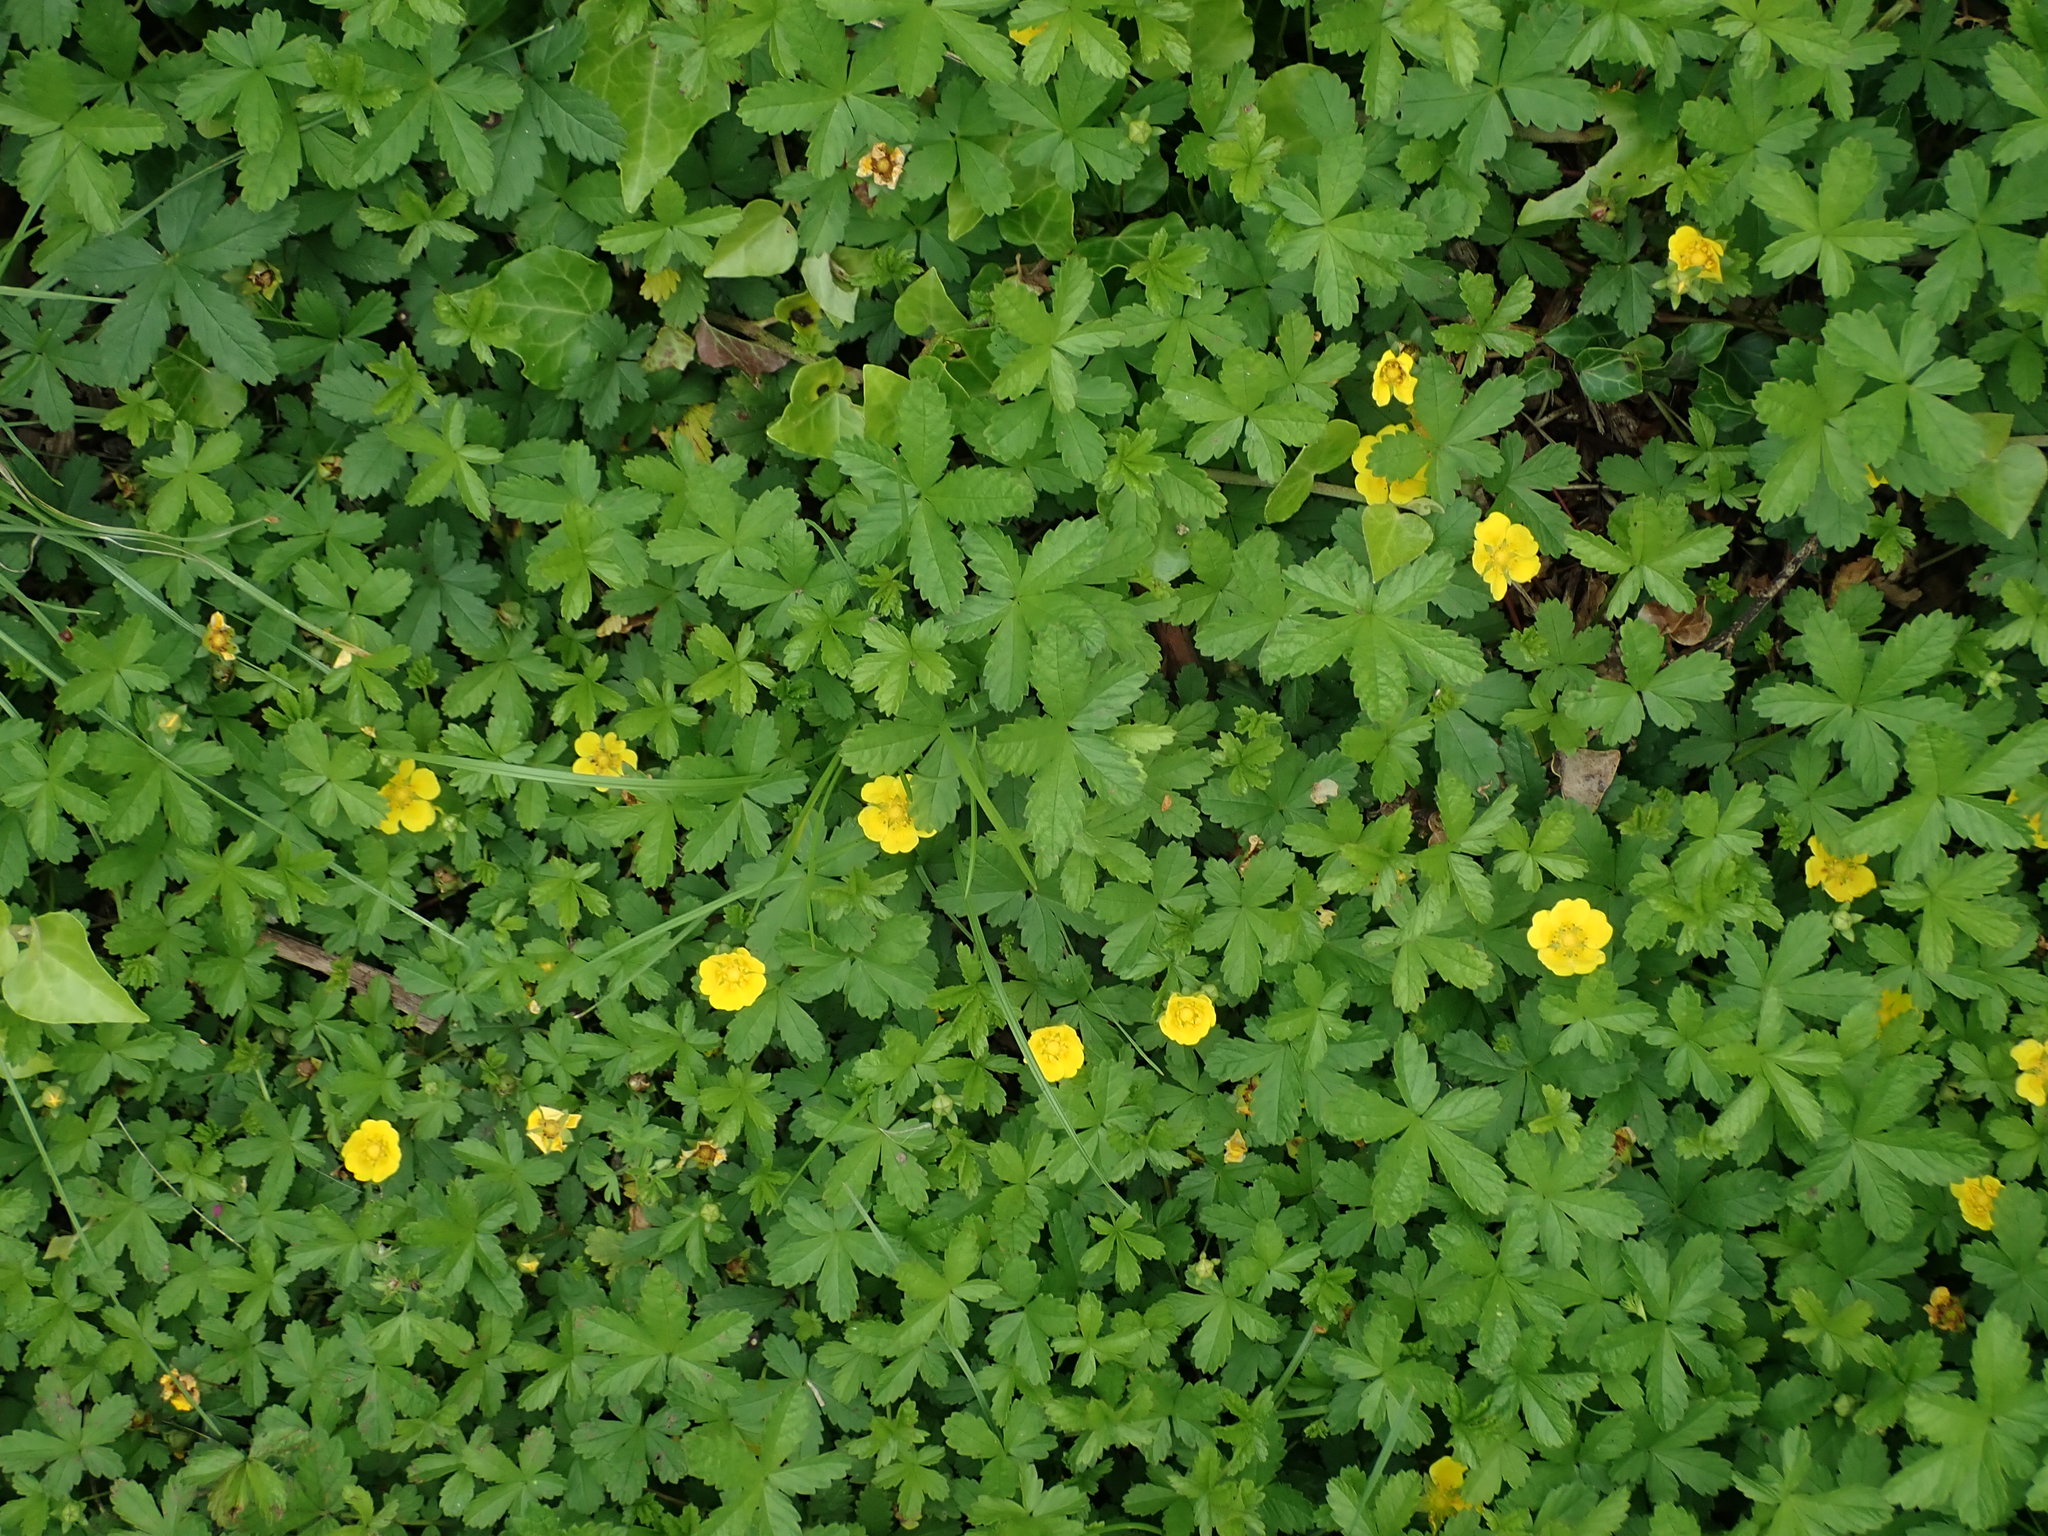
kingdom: Plantae
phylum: Tracheophyta
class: Magnoliopsida
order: Rosales
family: Rosaceae
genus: Potentilla
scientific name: Potentilla reptans
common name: Creeping cinquefoil
